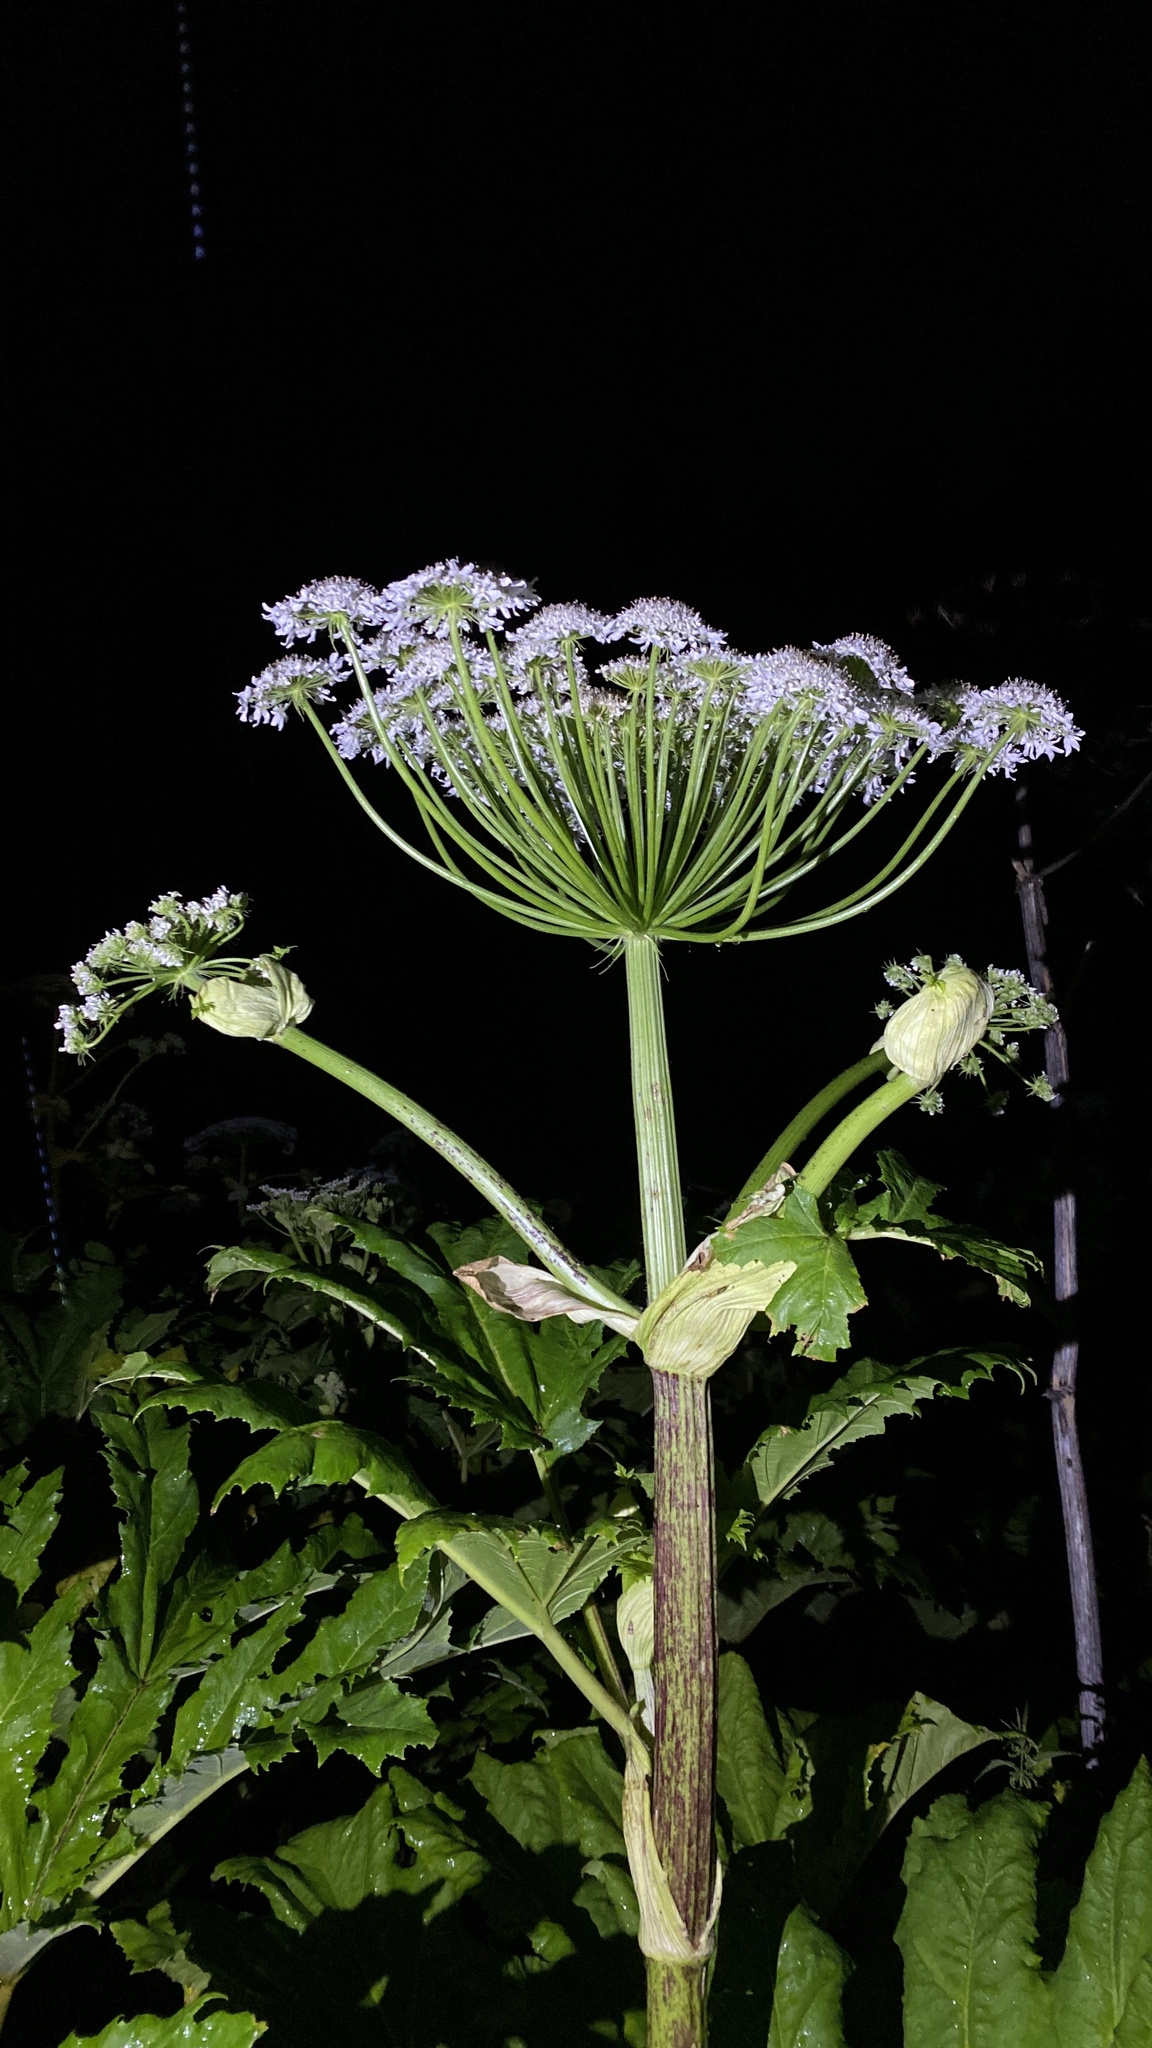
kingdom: Plantae
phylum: Tracheophyta
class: Magnoliopsida
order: Apiales
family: Apiaceae
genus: Heracleum
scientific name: Heracleum sosnowskyi
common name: Sosnowsky's hogweed
